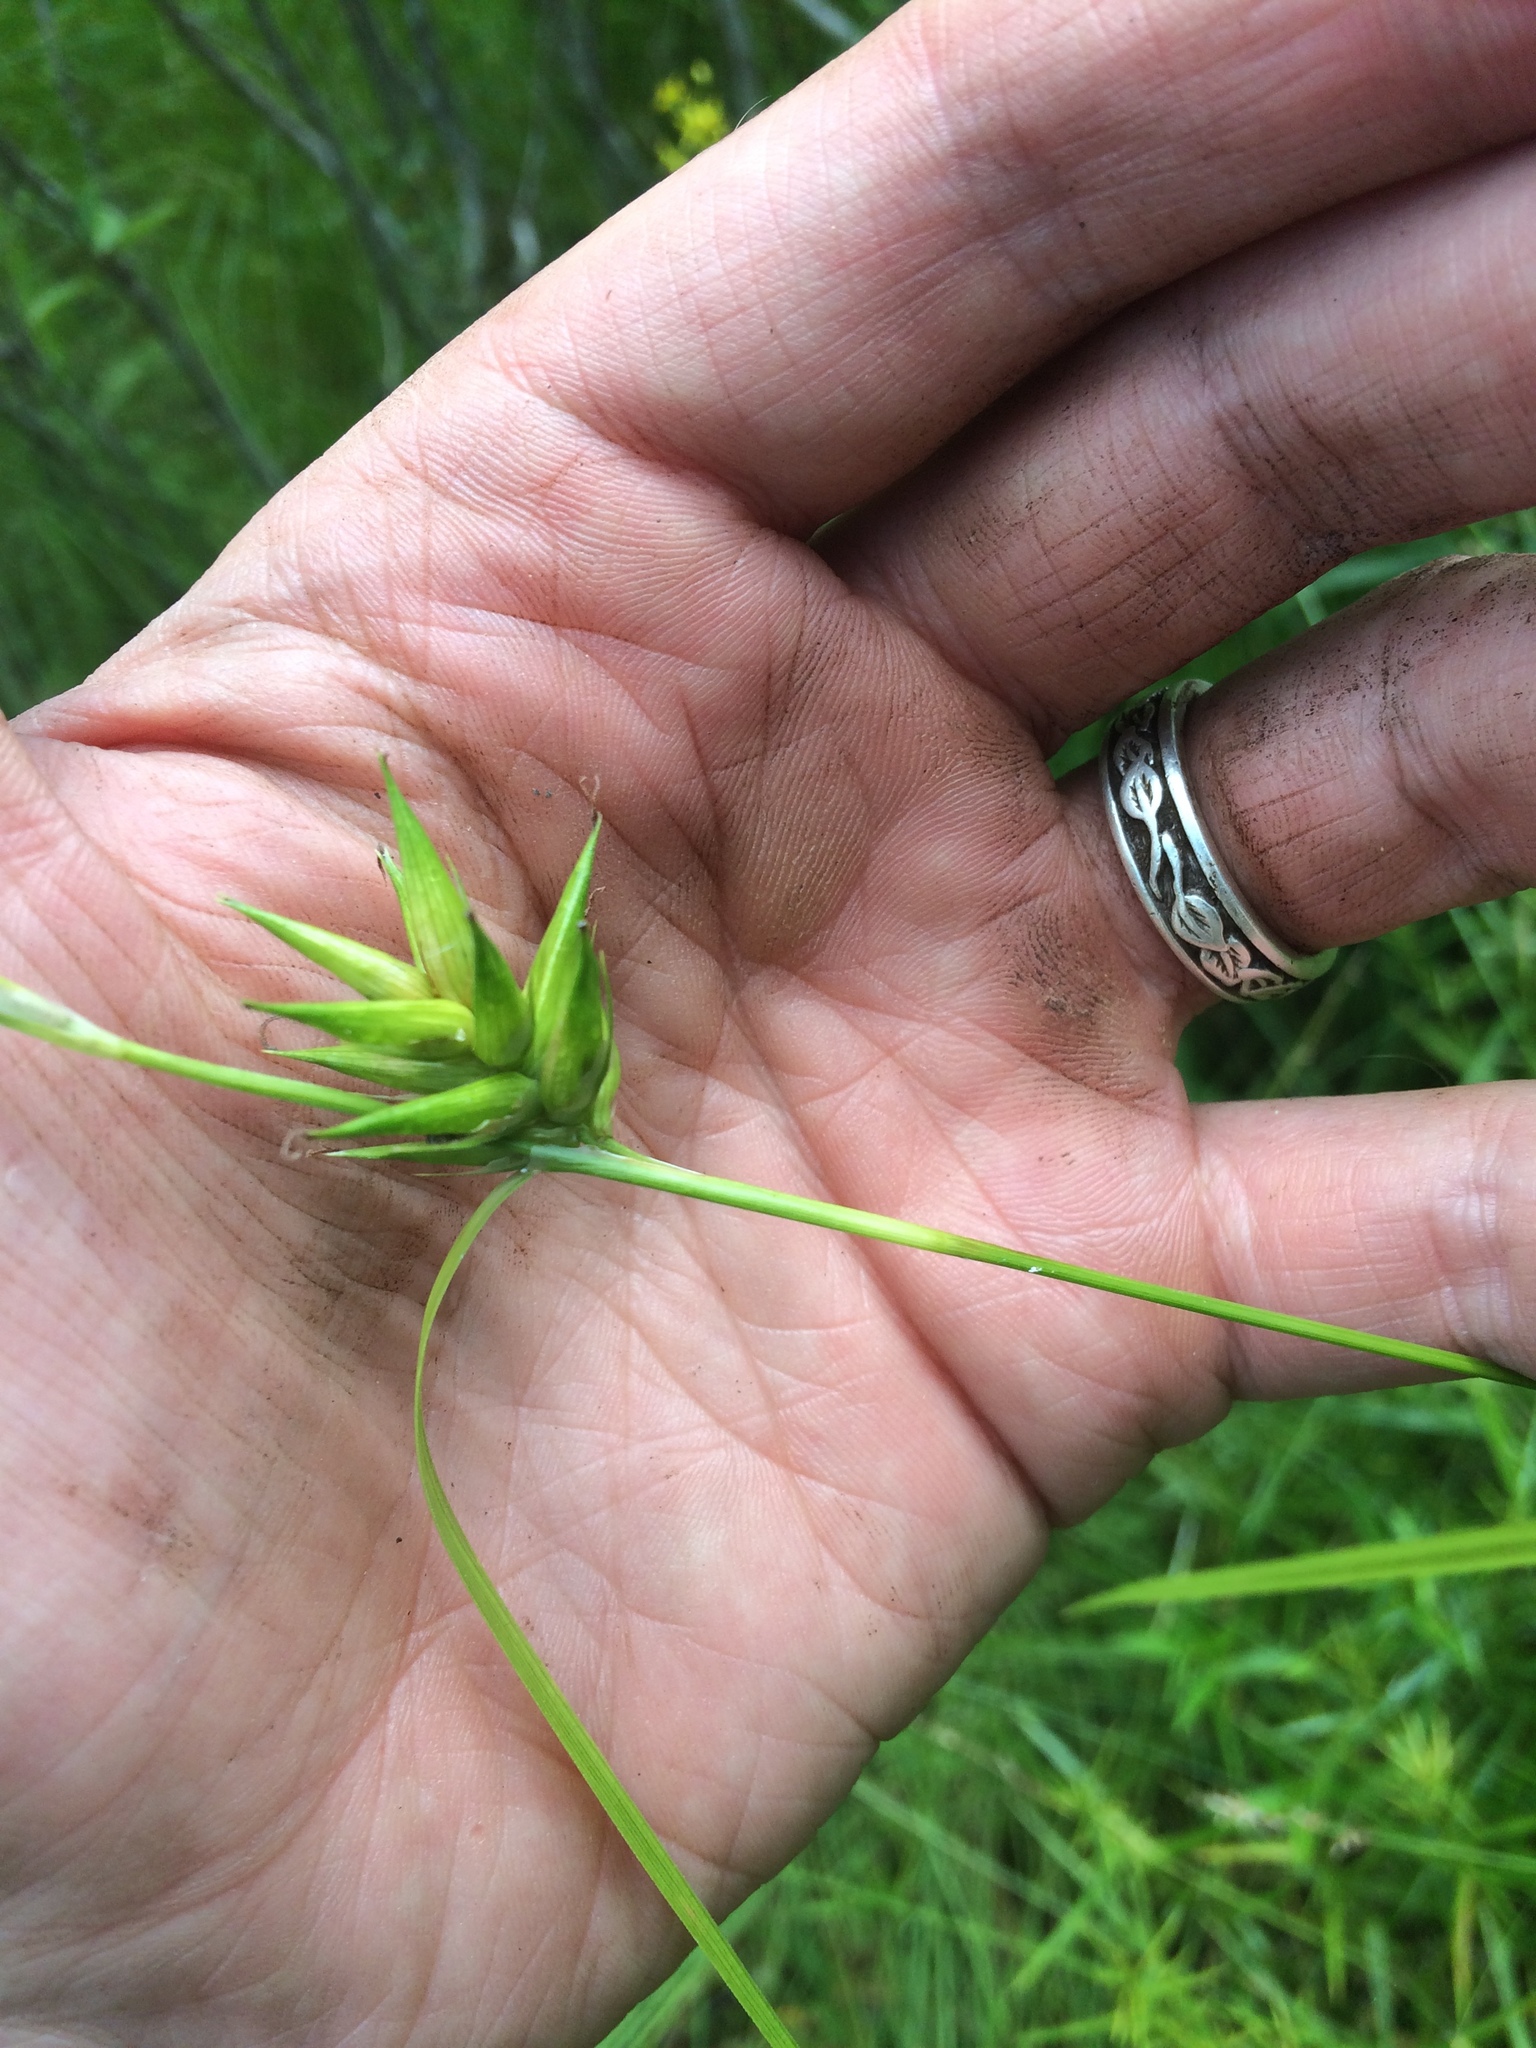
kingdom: Plantae
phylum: Tracheophyta
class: Liliopsida
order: Poales
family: Cyperaceae
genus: Carex
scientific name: Carex folliculata
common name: Northern long sedge
